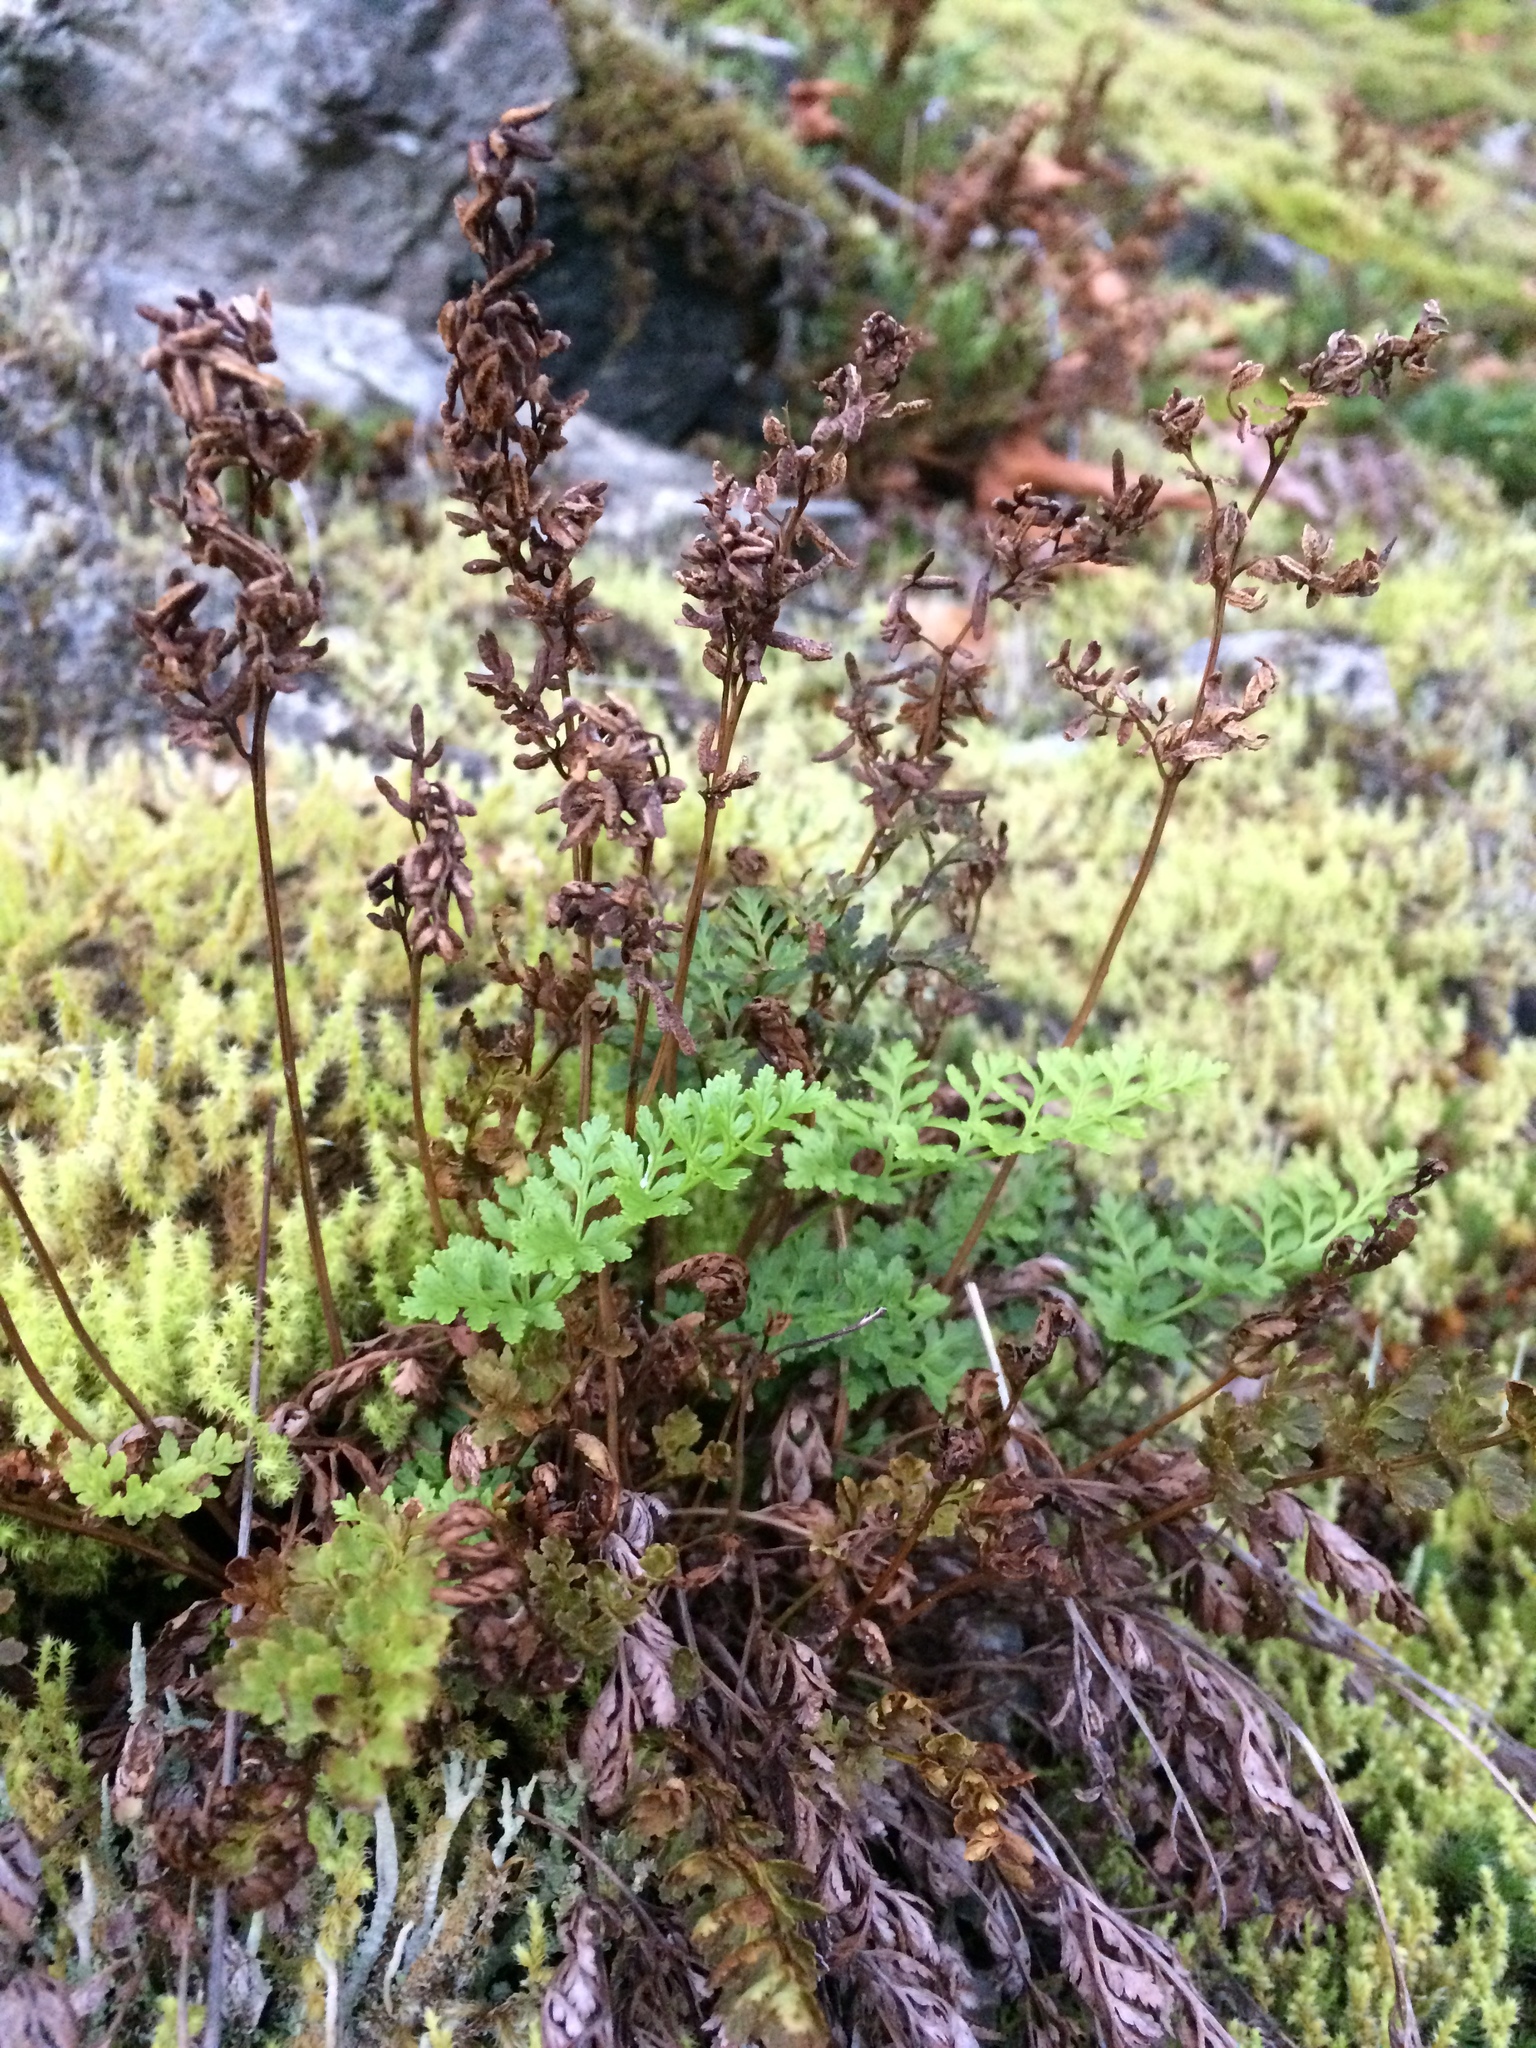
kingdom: Plantae
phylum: Tracheophyta
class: Polypodiopsida
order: Polypodiales
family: Pteridaceae
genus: Cryptogramma
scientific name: Cryptogramma acrostichoides
